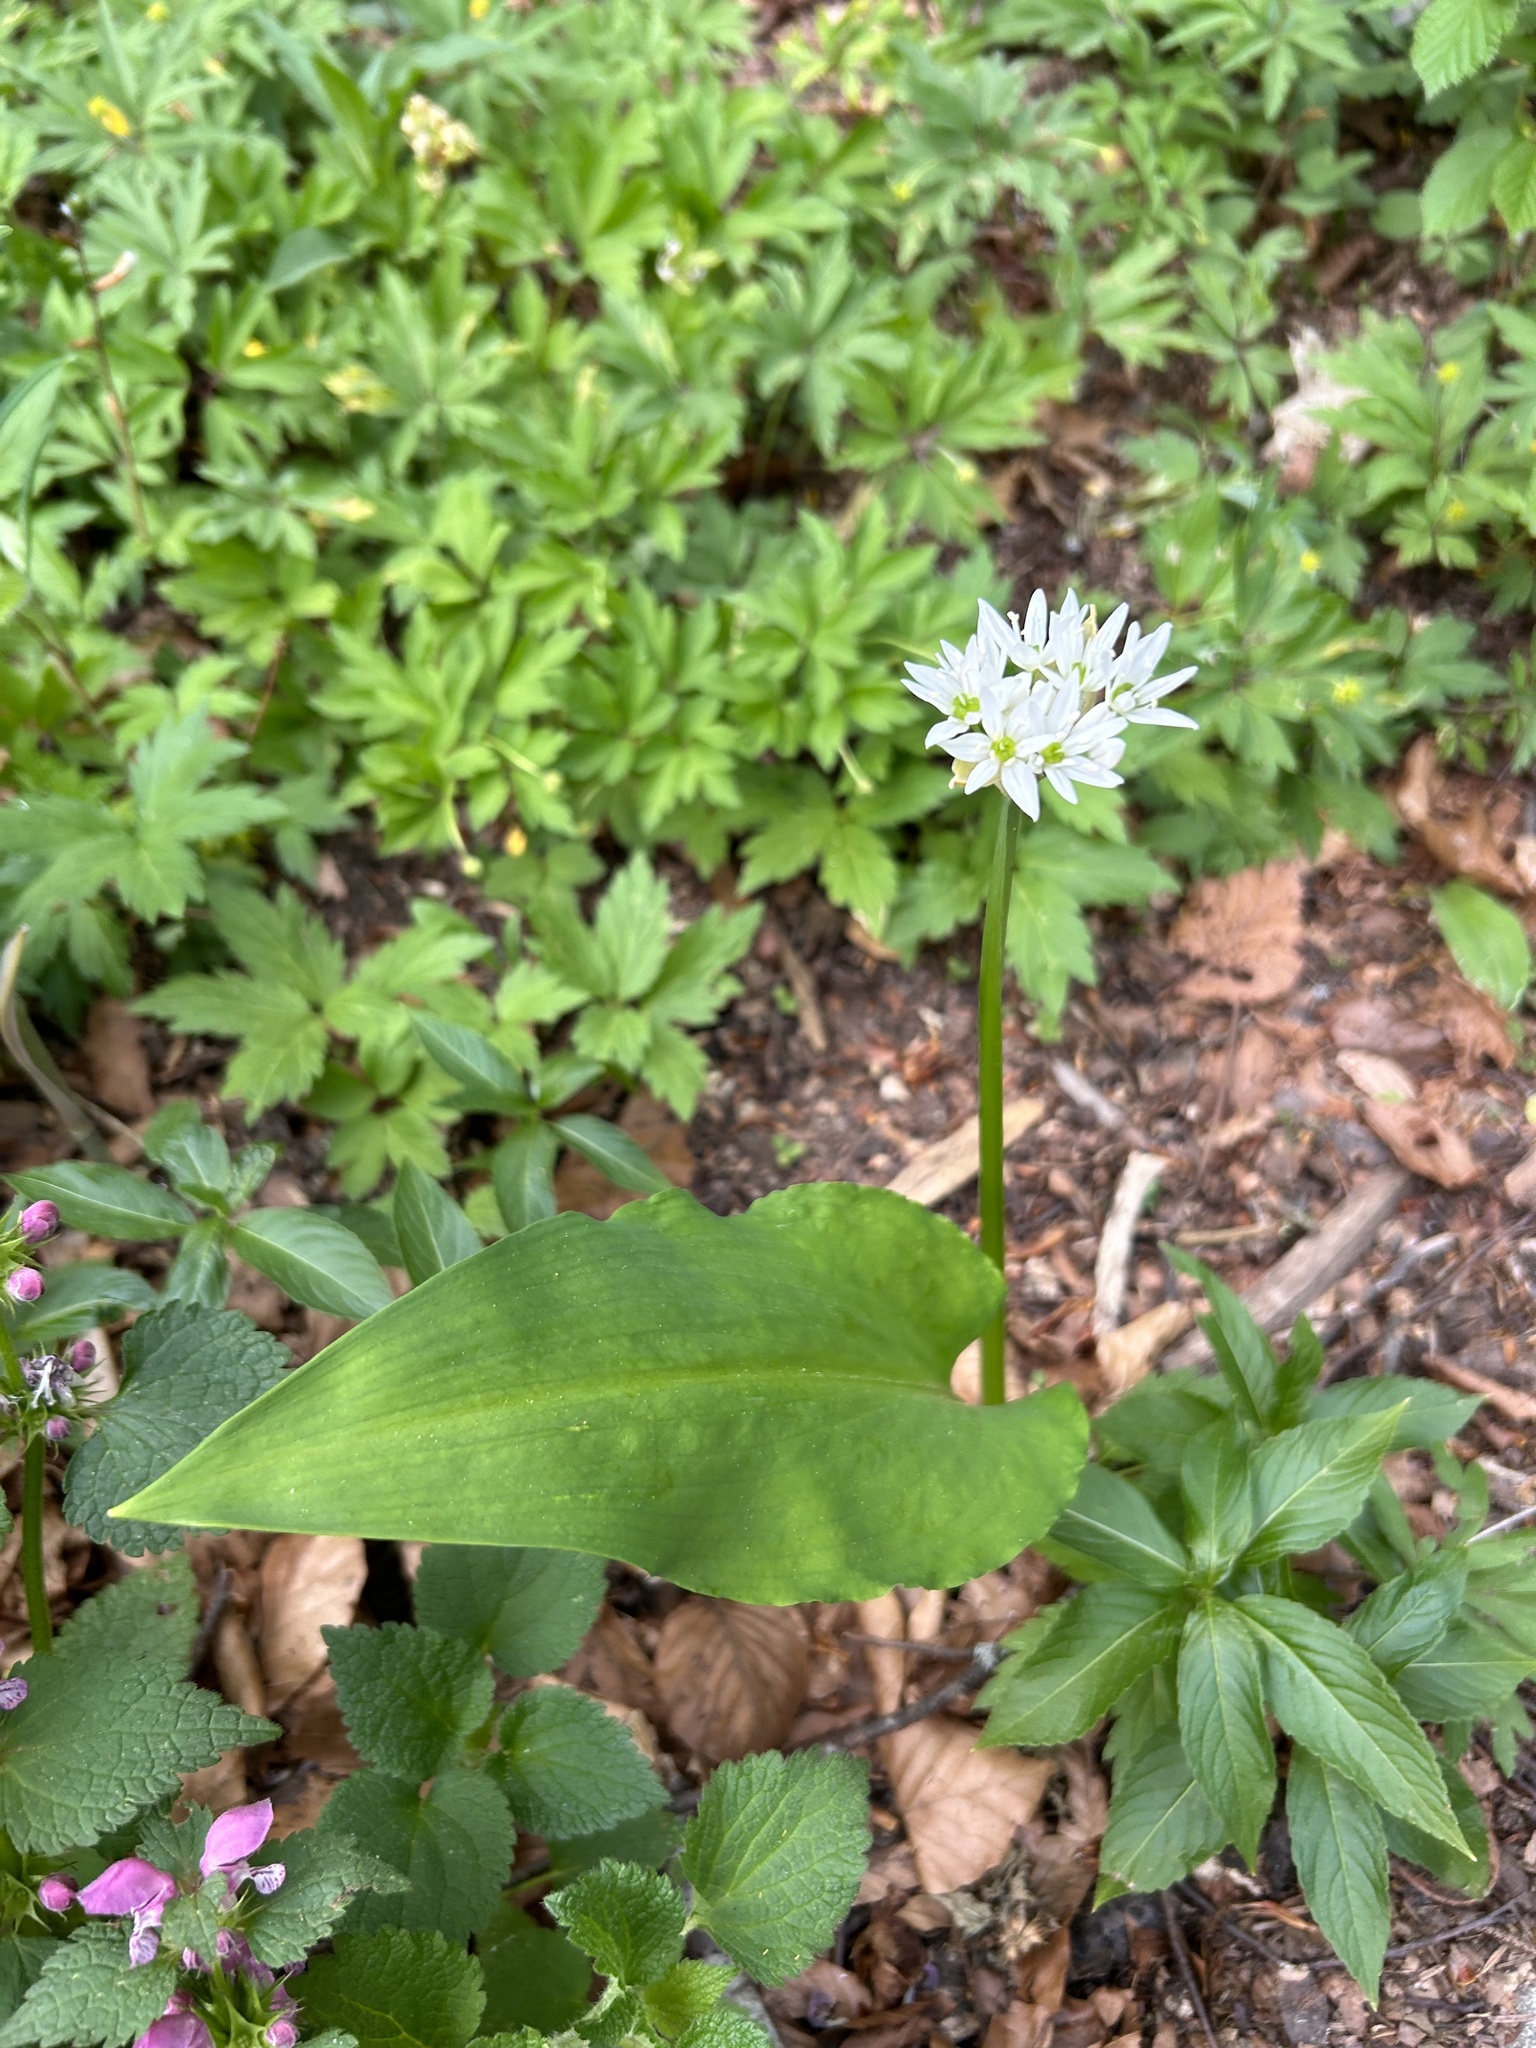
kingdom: Plantae
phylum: Tracheophyta
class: Liliopsida
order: Asparagales
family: Amaryllidaceae
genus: Allium
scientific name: Allium ursinum
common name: Ramsons
